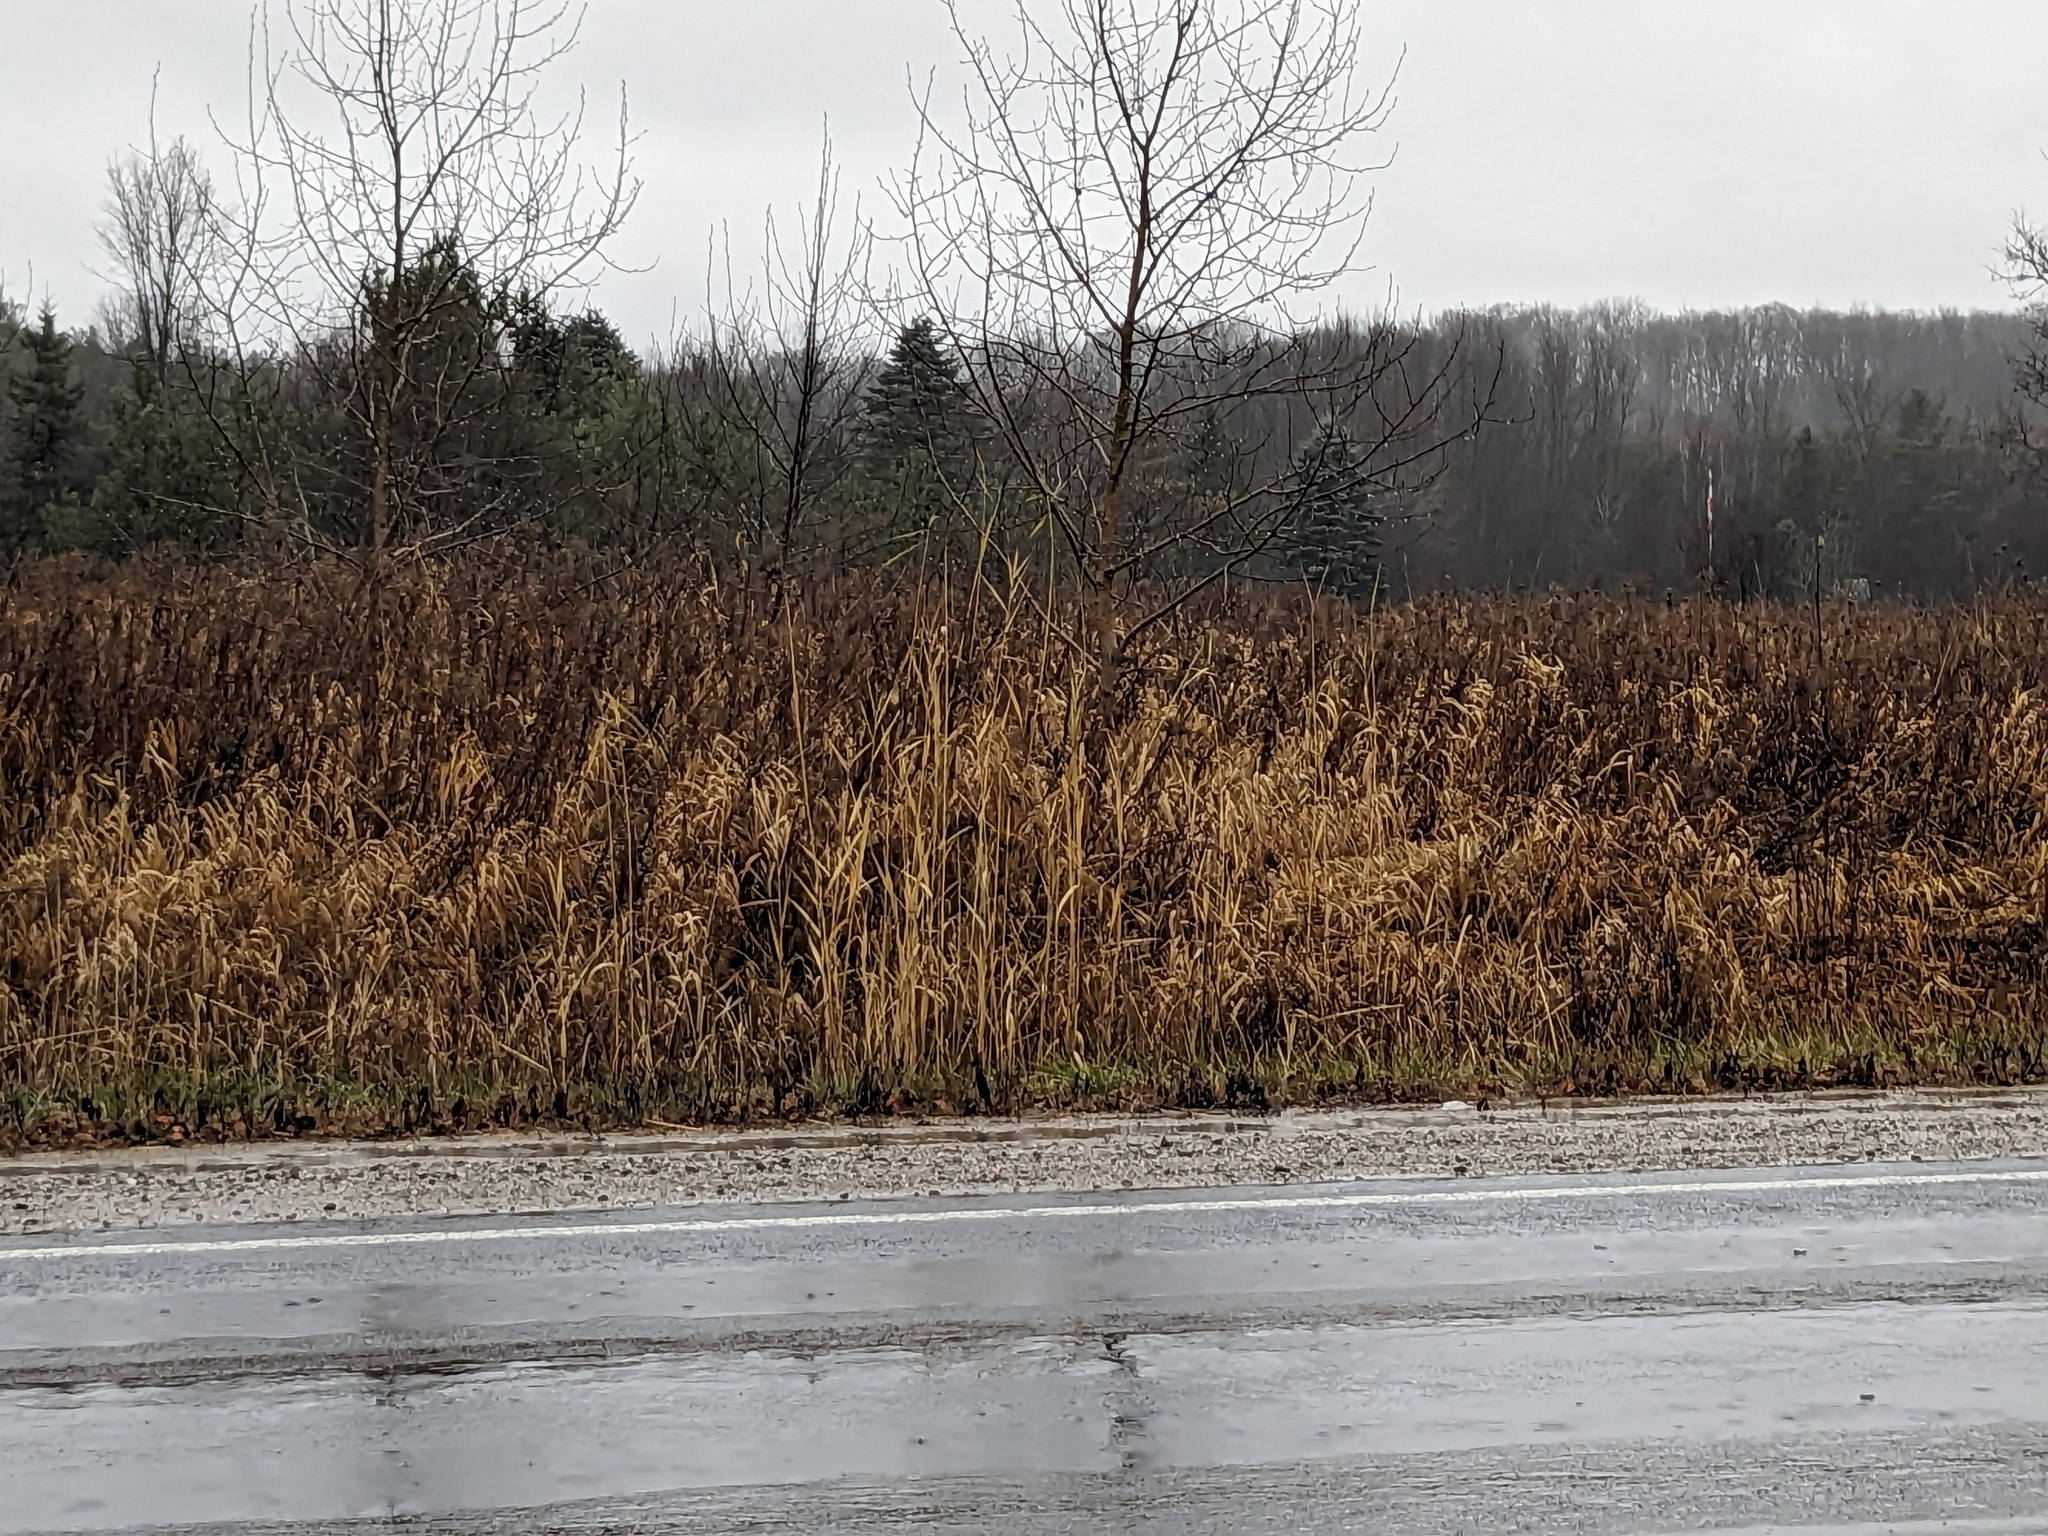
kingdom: Plantae
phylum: Tracheophyta
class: Liliopsida
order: Poales
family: Poaceae
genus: Phragmites
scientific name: Phragmites australis
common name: Common reed
